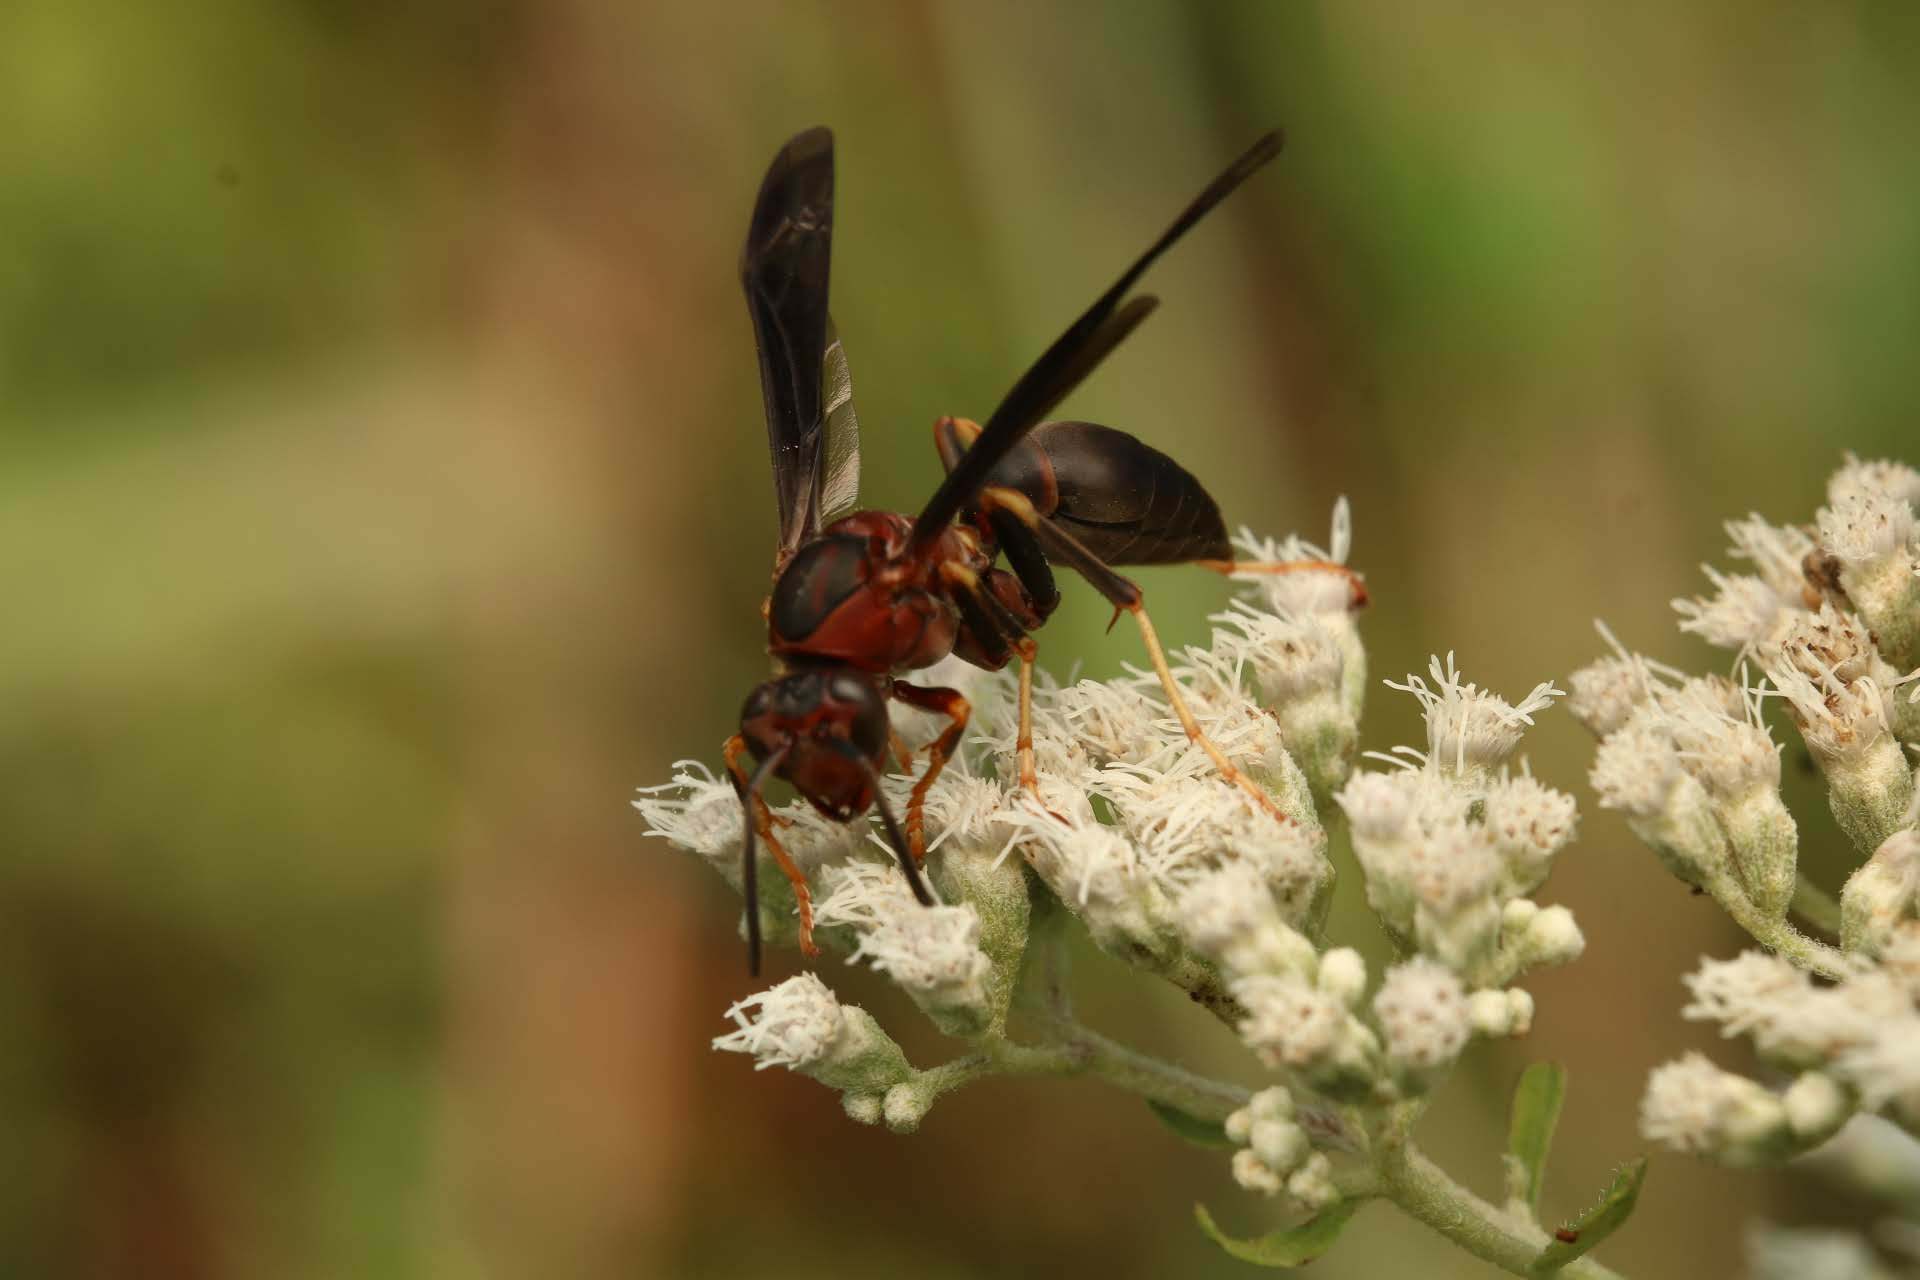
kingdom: Animalia
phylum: Arthropoda
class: Insecta
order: Hymenoptera
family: Eumenidae
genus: Polistes
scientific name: Polistes metricus
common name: Metric paper wasp
